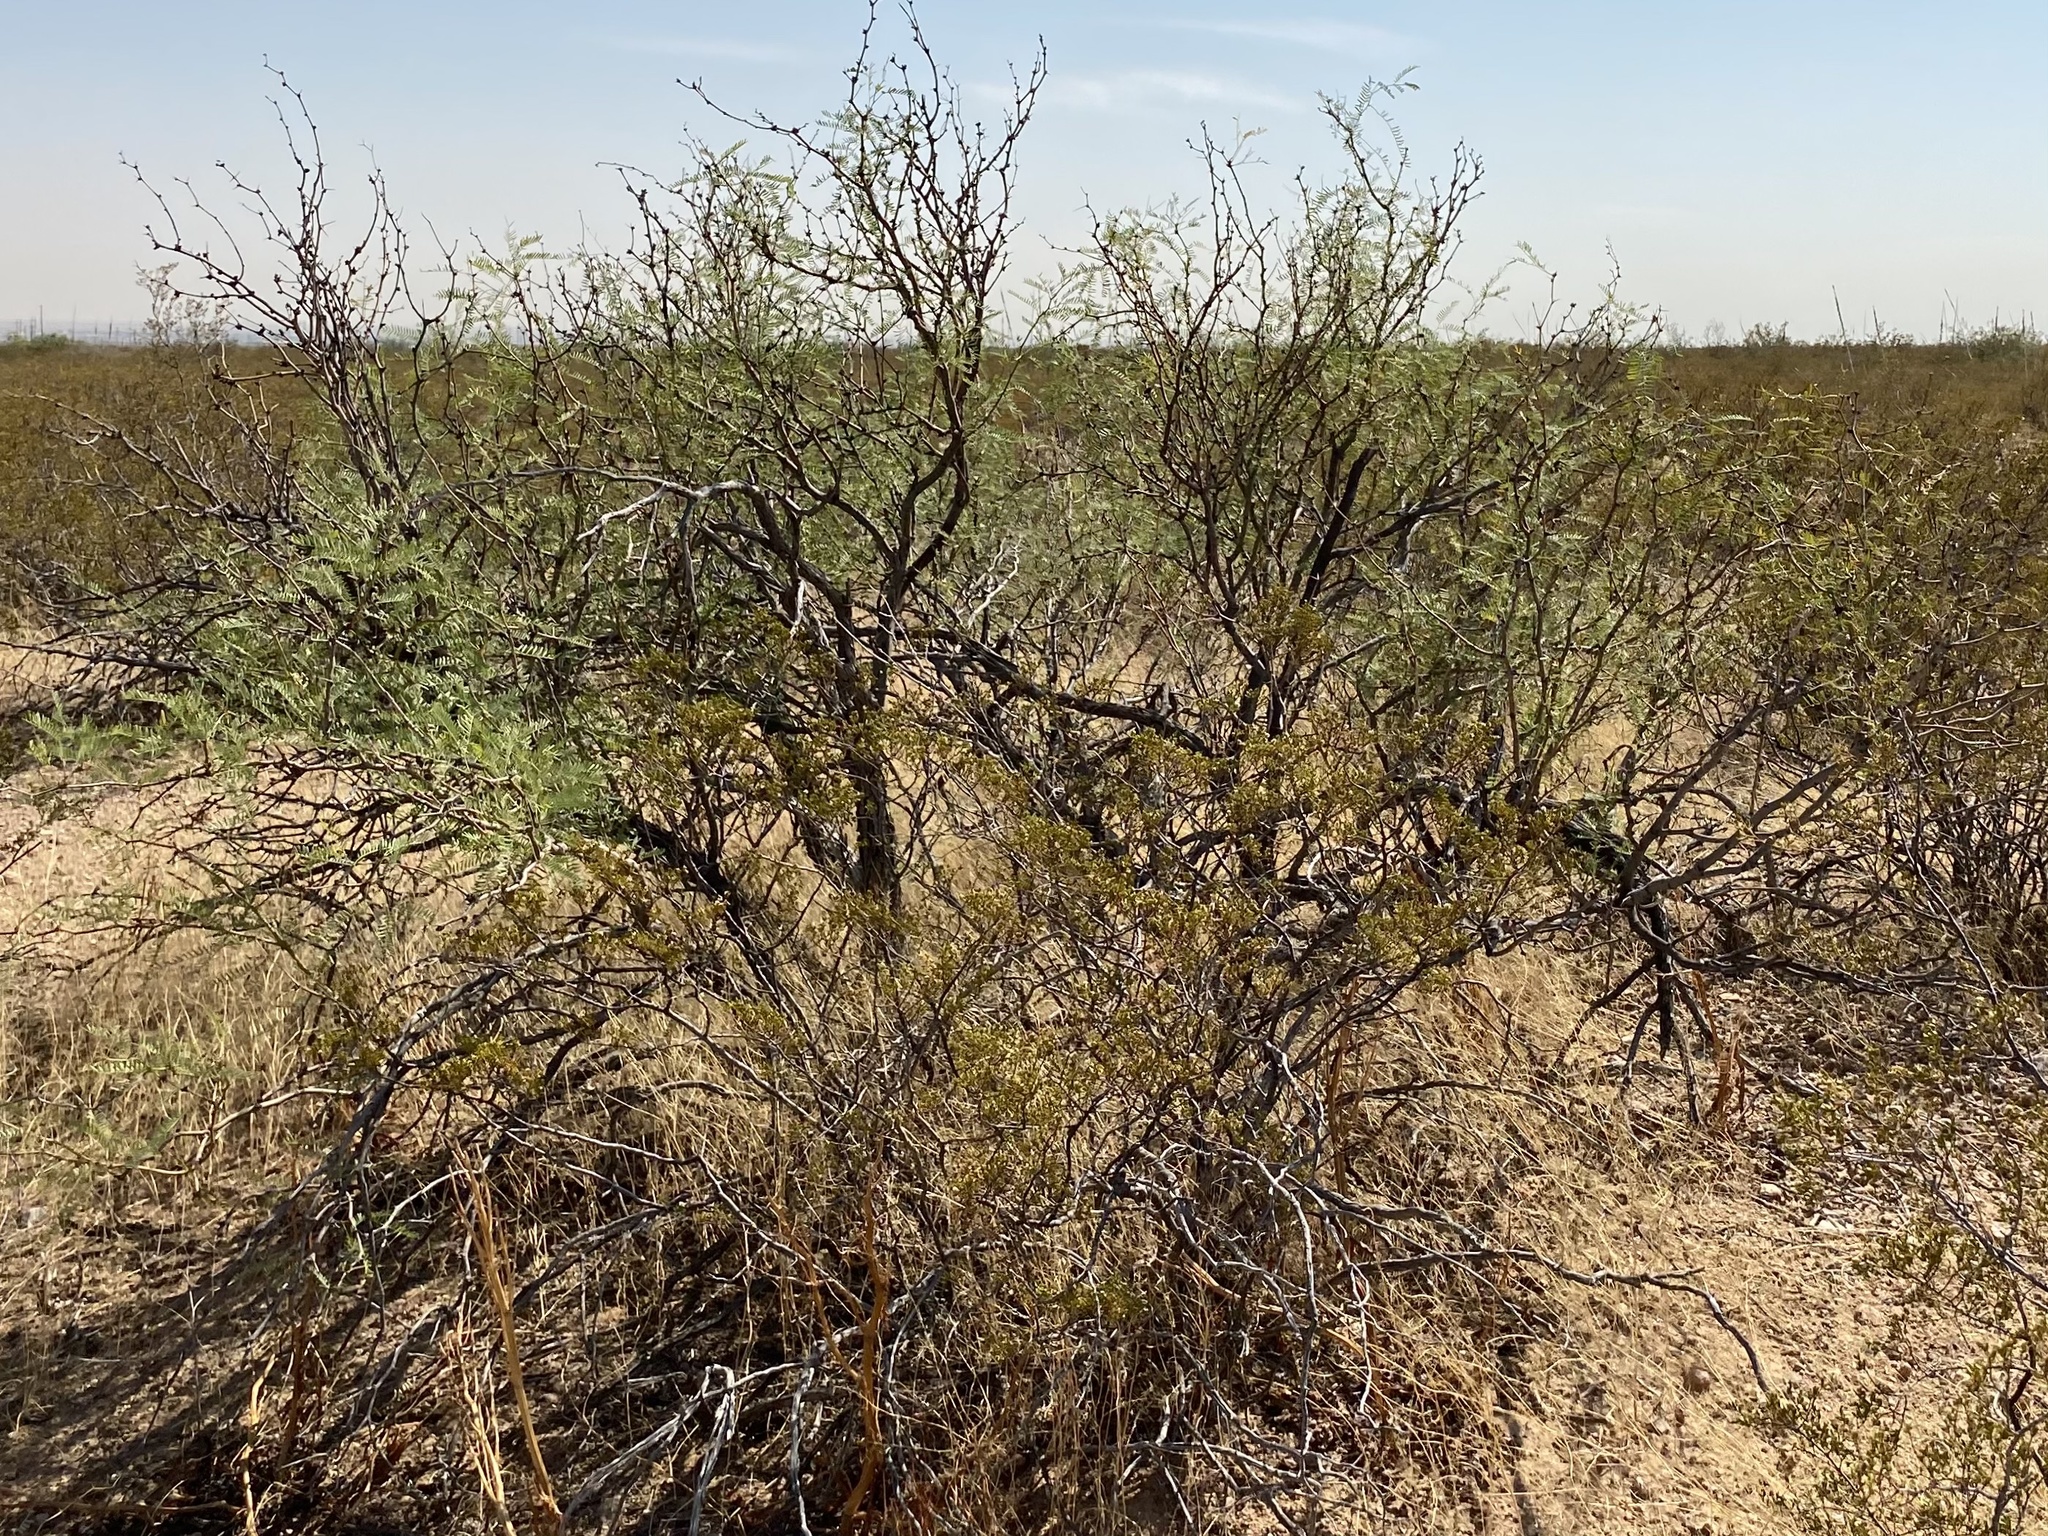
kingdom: Plantae
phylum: Tracheophyta
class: Magnoliopsida
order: Fabales
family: Fabaceae
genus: Prosopis
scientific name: Prosopis glandulosa
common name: Honey mesquite
